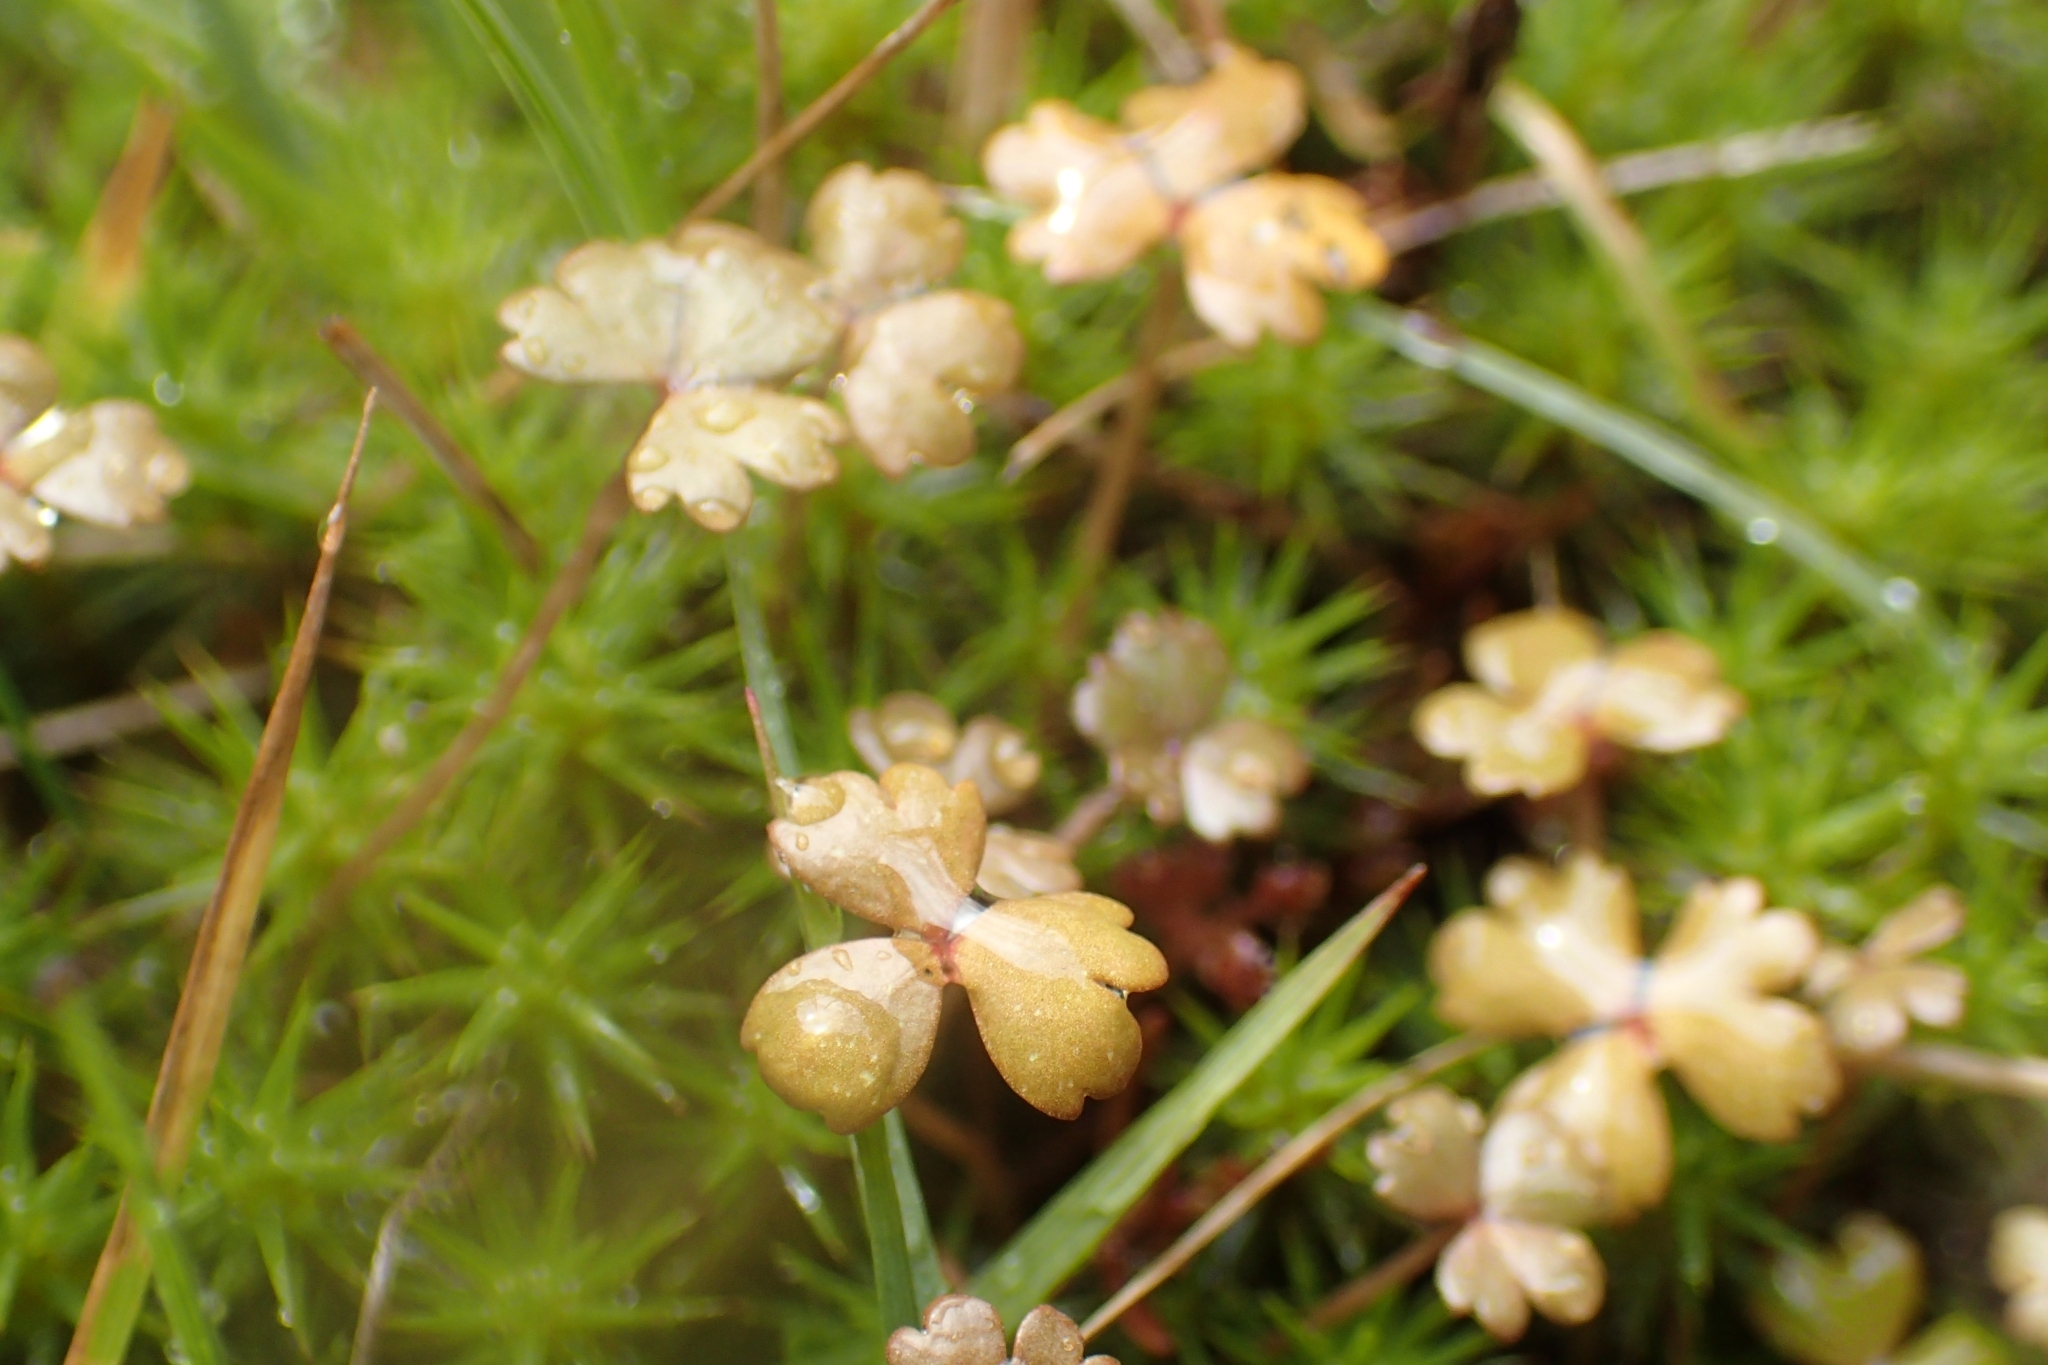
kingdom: Plantae
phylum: Tracheophyta
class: Magnoliopsida
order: Apiales
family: Araliaceae
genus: Hydrocotyle
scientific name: Hydrocotyle sulcata
